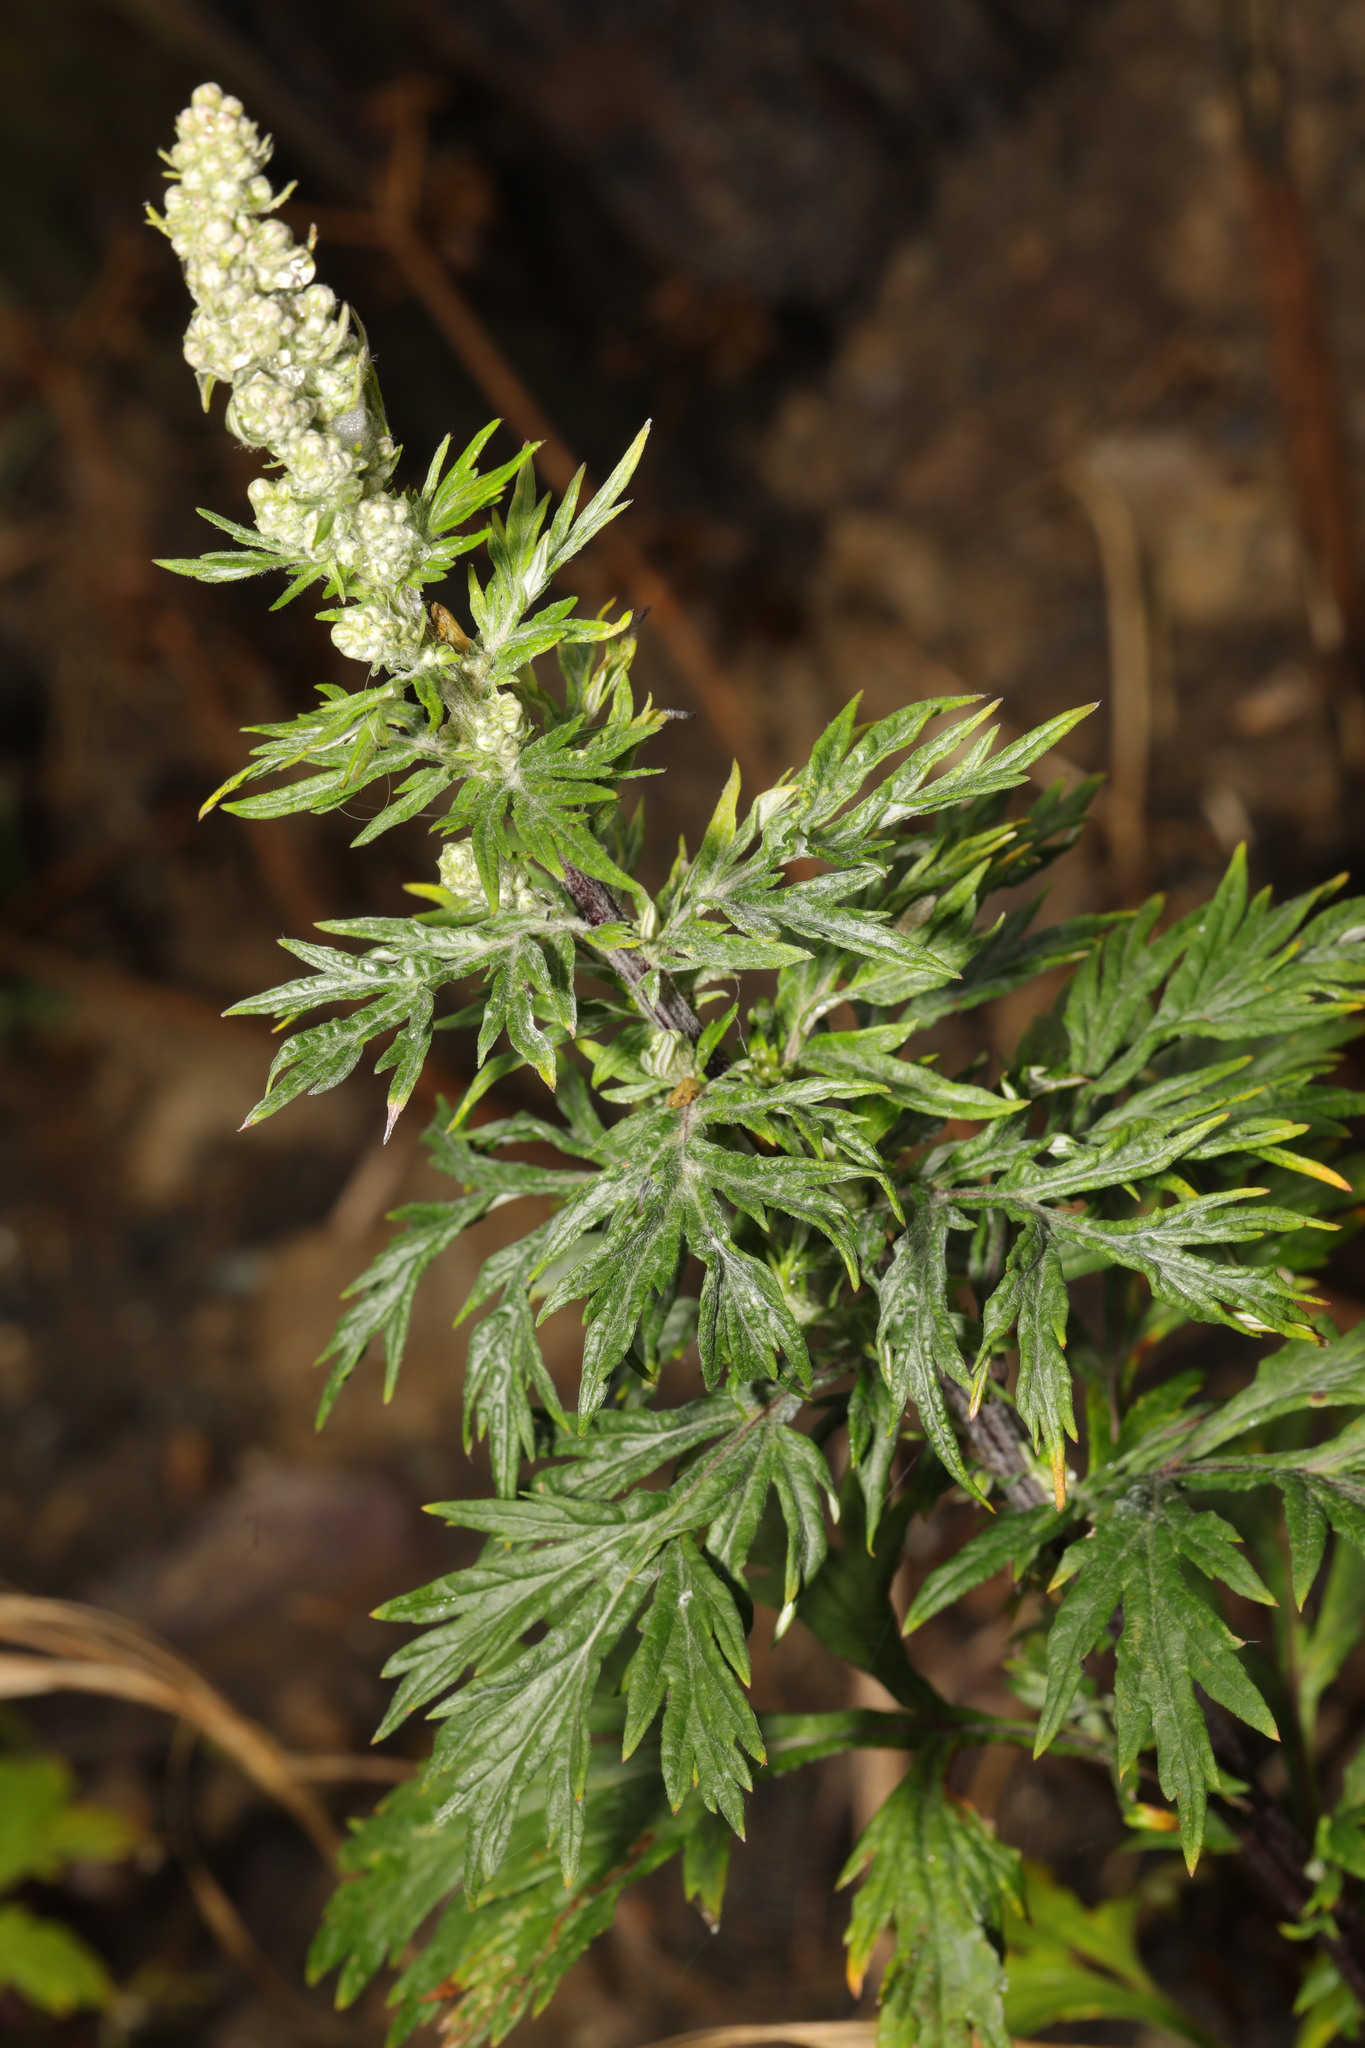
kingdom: Plantae
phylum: Tracheophyta
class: Magnoliopsida
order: Asterales
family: Asteraceae
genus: Artemisia
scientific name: Artemisia vulgaris
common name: Mugwort
